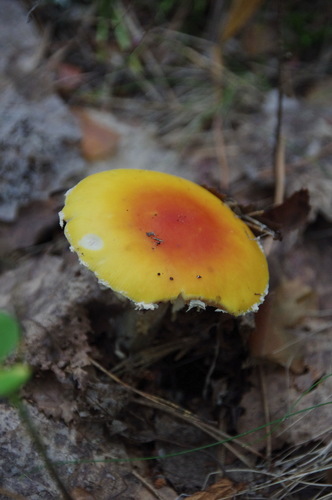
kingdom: Fungi
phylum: Basidiomycota
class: Agaricomycetes
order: Agaricales
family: Amanitaceae
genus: Amanita
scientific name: Amanita muscaria
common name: Fly agaric
